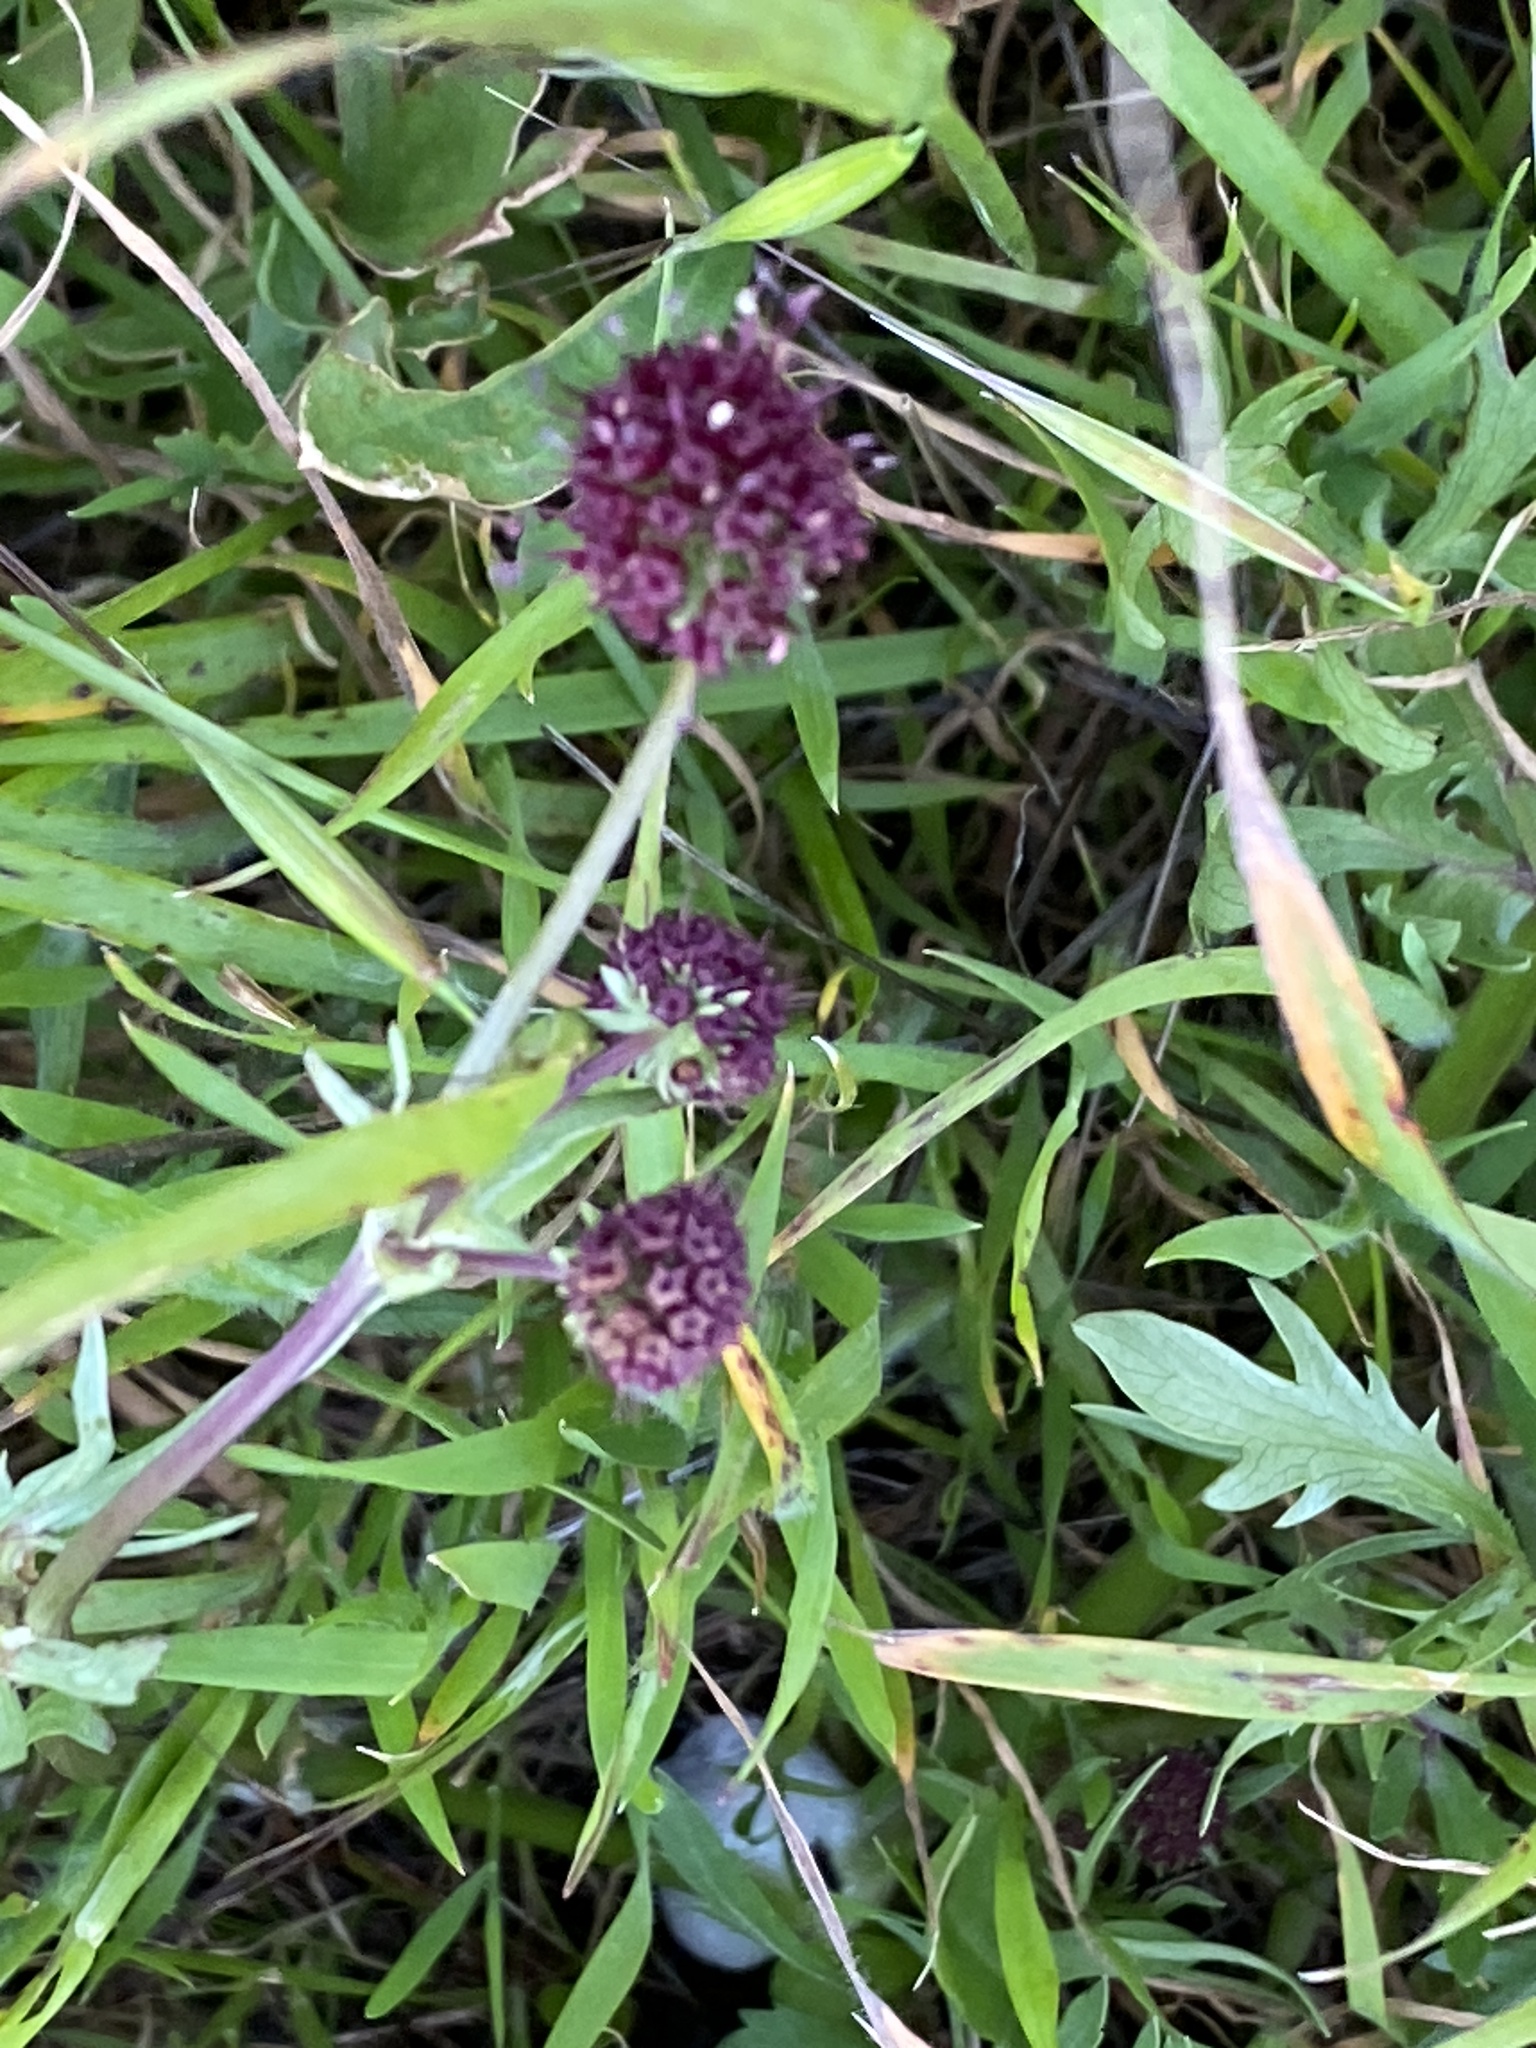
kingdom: Plantae
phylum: Tracheophyta
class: Magnoliopsida
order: Apiales
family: Apiaceae
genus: Sanicula
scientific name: Sanicula bipinnatifida
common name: Shoe-buttons
